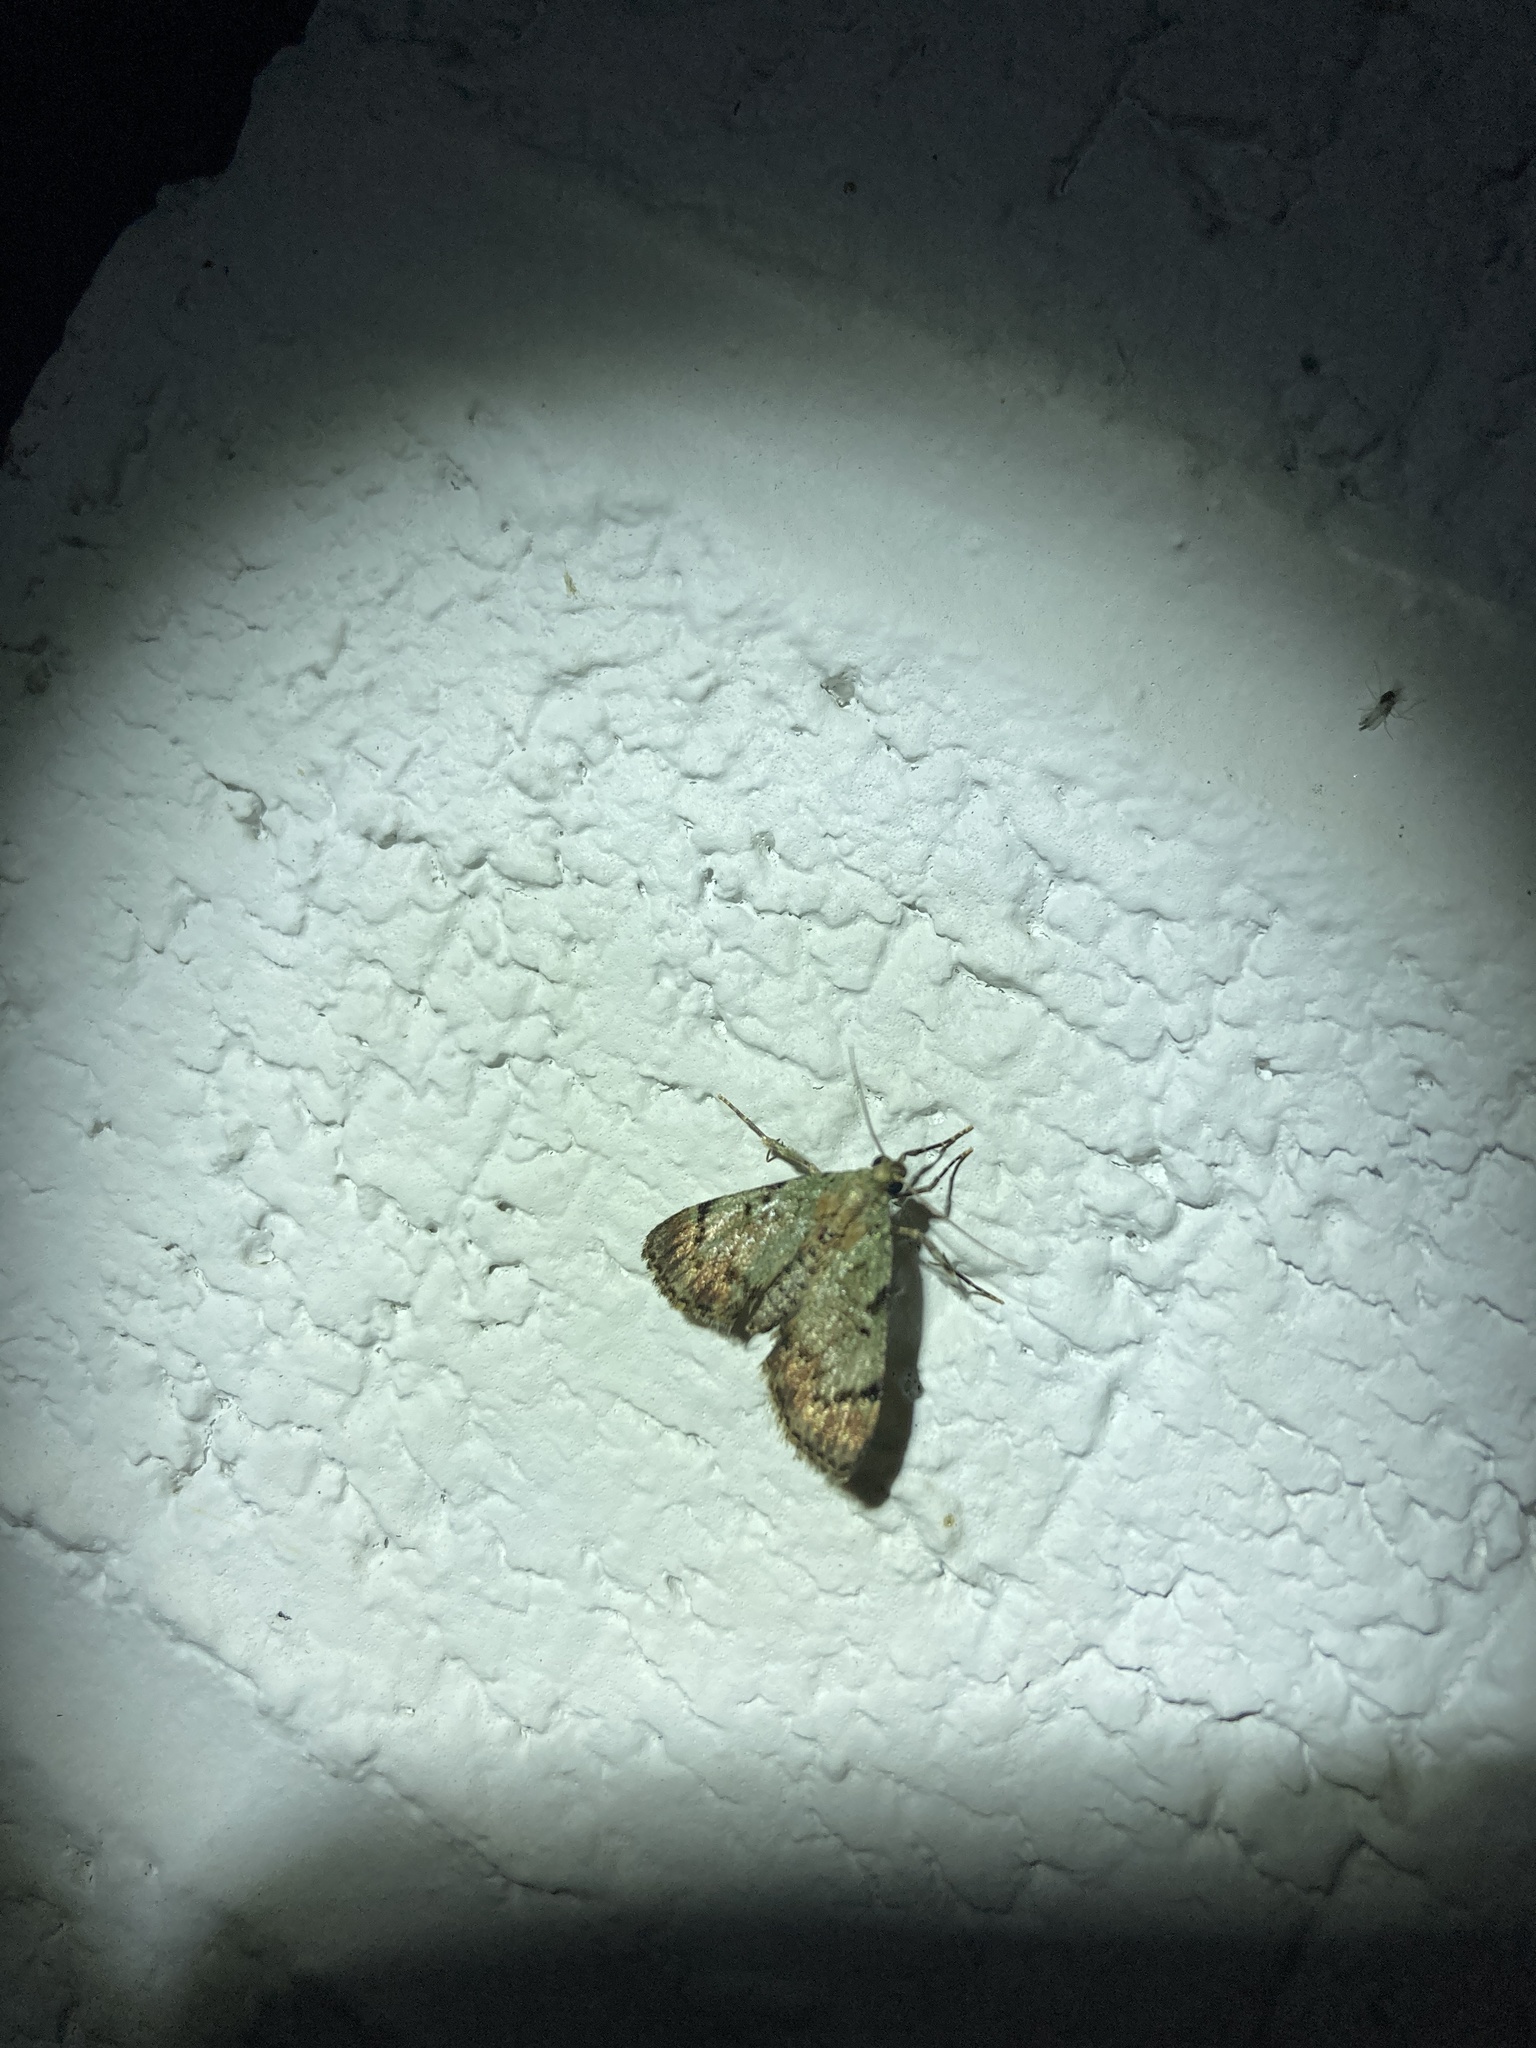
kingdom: Animalia
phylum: Arthropoda
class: Insecta
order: Lepidoptera
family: Pyralidae
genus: Epipaschia
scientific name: Epipaschia superatalis
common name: Dimorphic macalla moth
